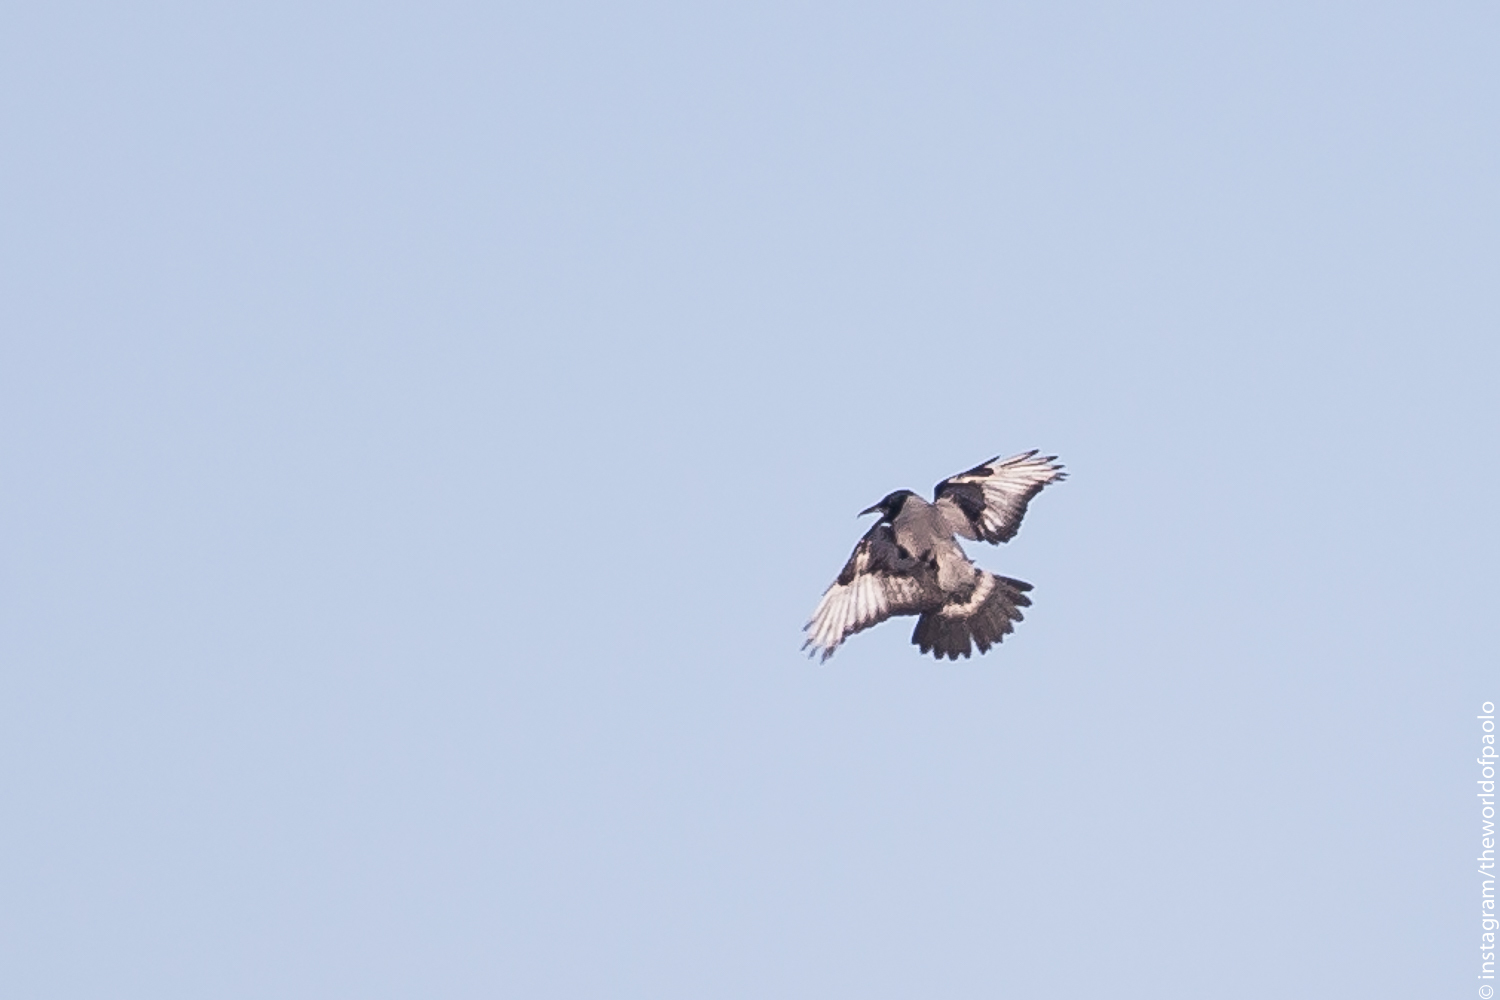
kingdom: Animalia
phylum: Chordata
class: Aves
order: Passeriformes
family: Corvidae
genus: Corvus
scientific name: Corvus cornix
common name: Hooded crow
